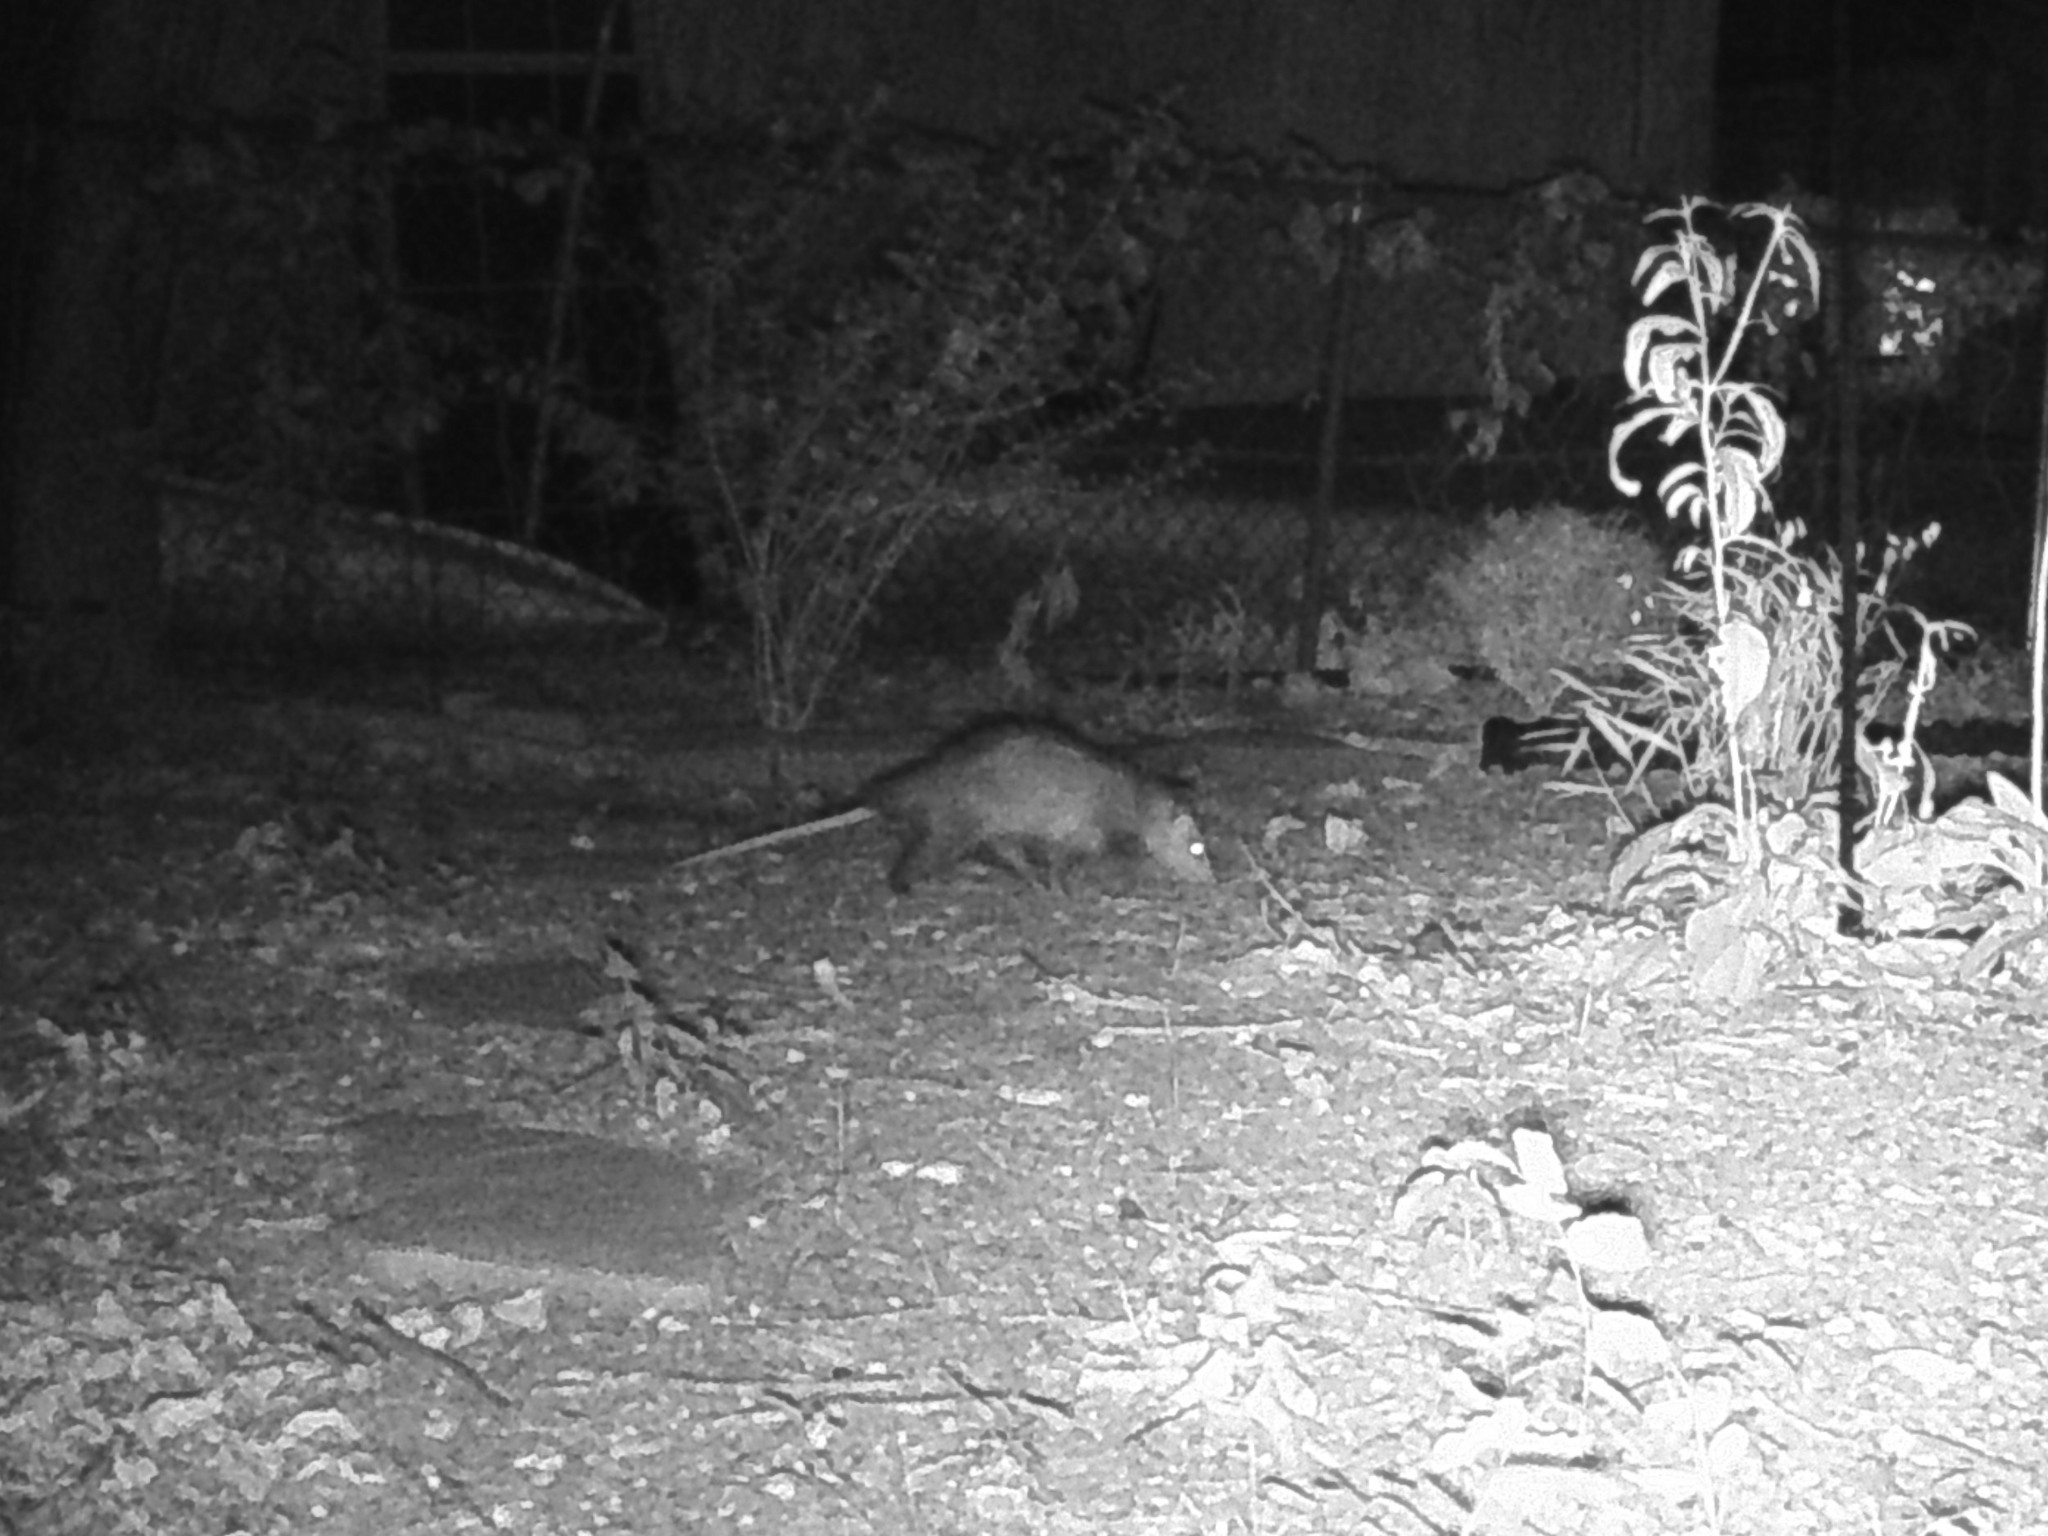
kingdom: Animalia
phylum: Chordata
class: Mammalia
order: Didelphimorphia
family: Didelphidae
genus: Didelphis
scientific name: Didelphis virginiana
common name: Virginia opossum
